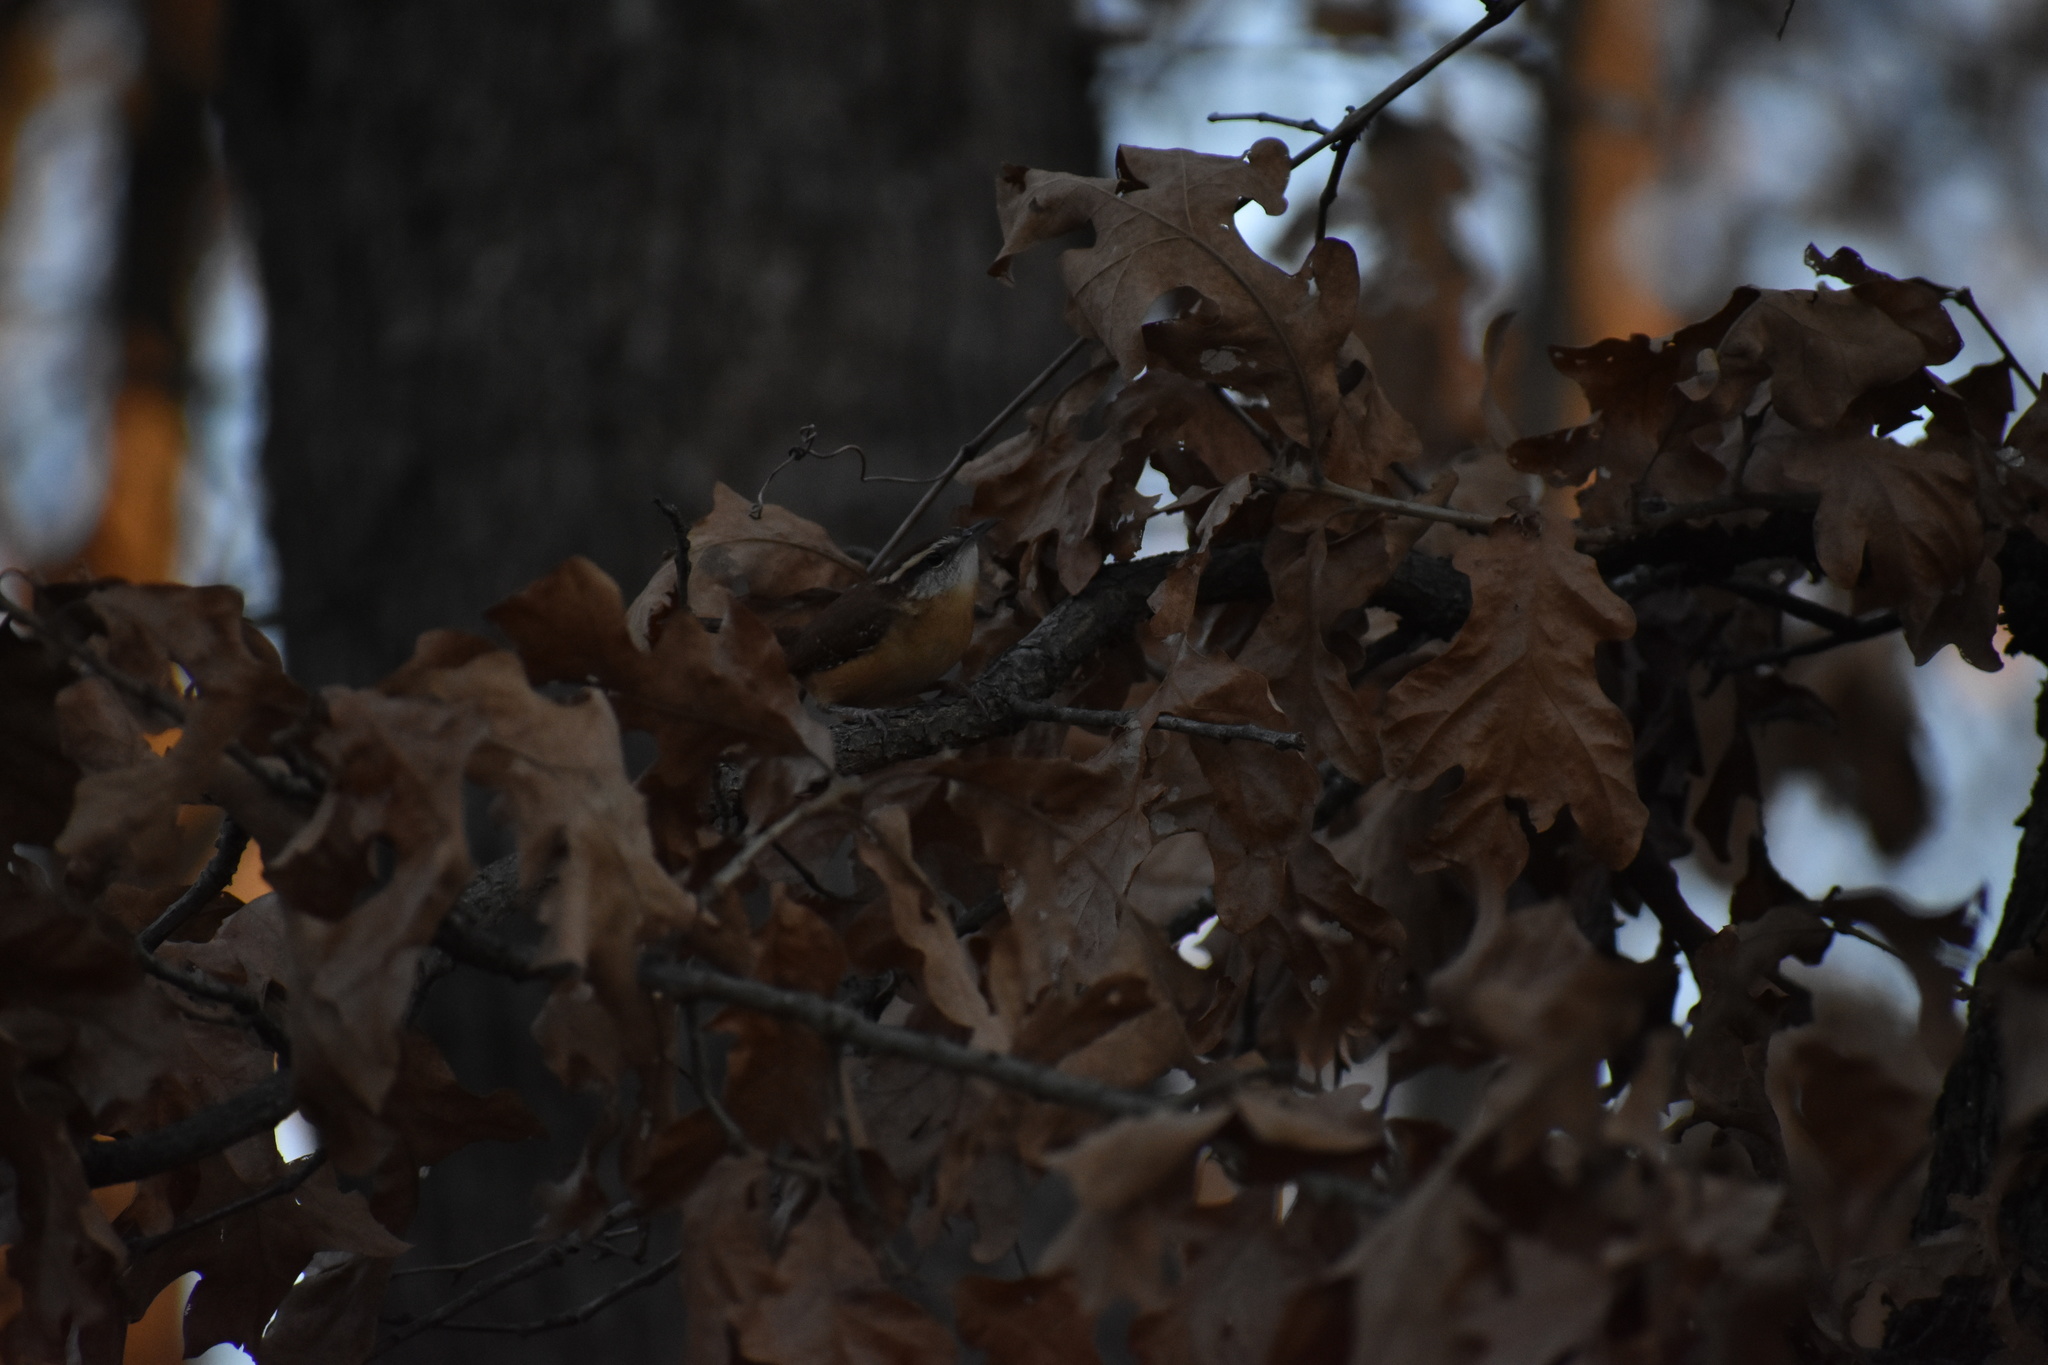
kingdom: Animalia
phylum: Chordata
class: Aves
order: Passeriformes
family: Troglodytidae
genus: Thryothorus
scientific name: Thryothorus ludovicianus
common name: Carolina wren
